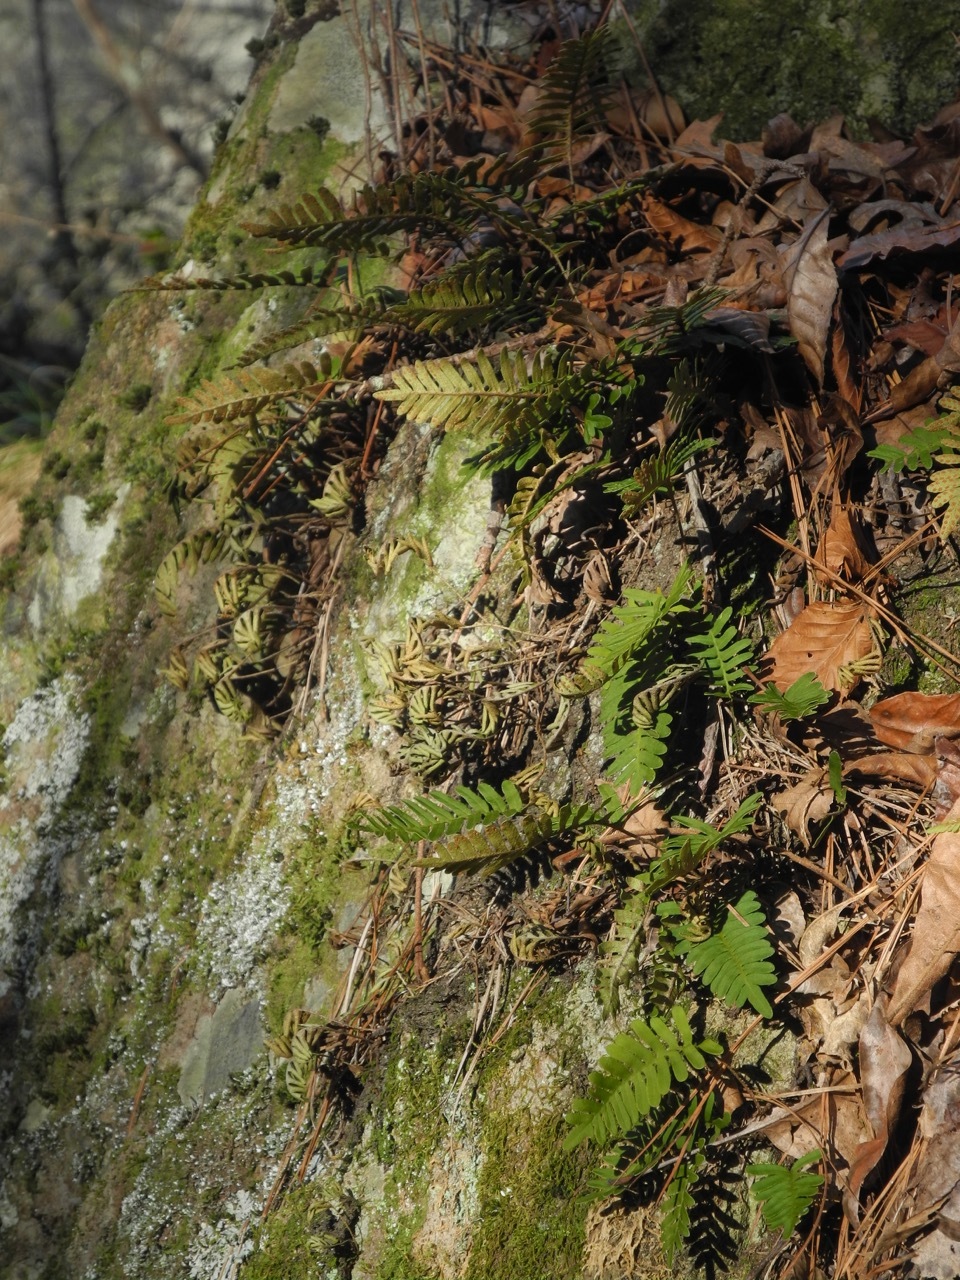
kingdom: Plantae
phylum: Tracheophyta
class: Polypodiopsida
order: Polypodiales
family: Polypodiaceae
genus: Pleopeltis
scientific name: Pleopeltis michauxiana
